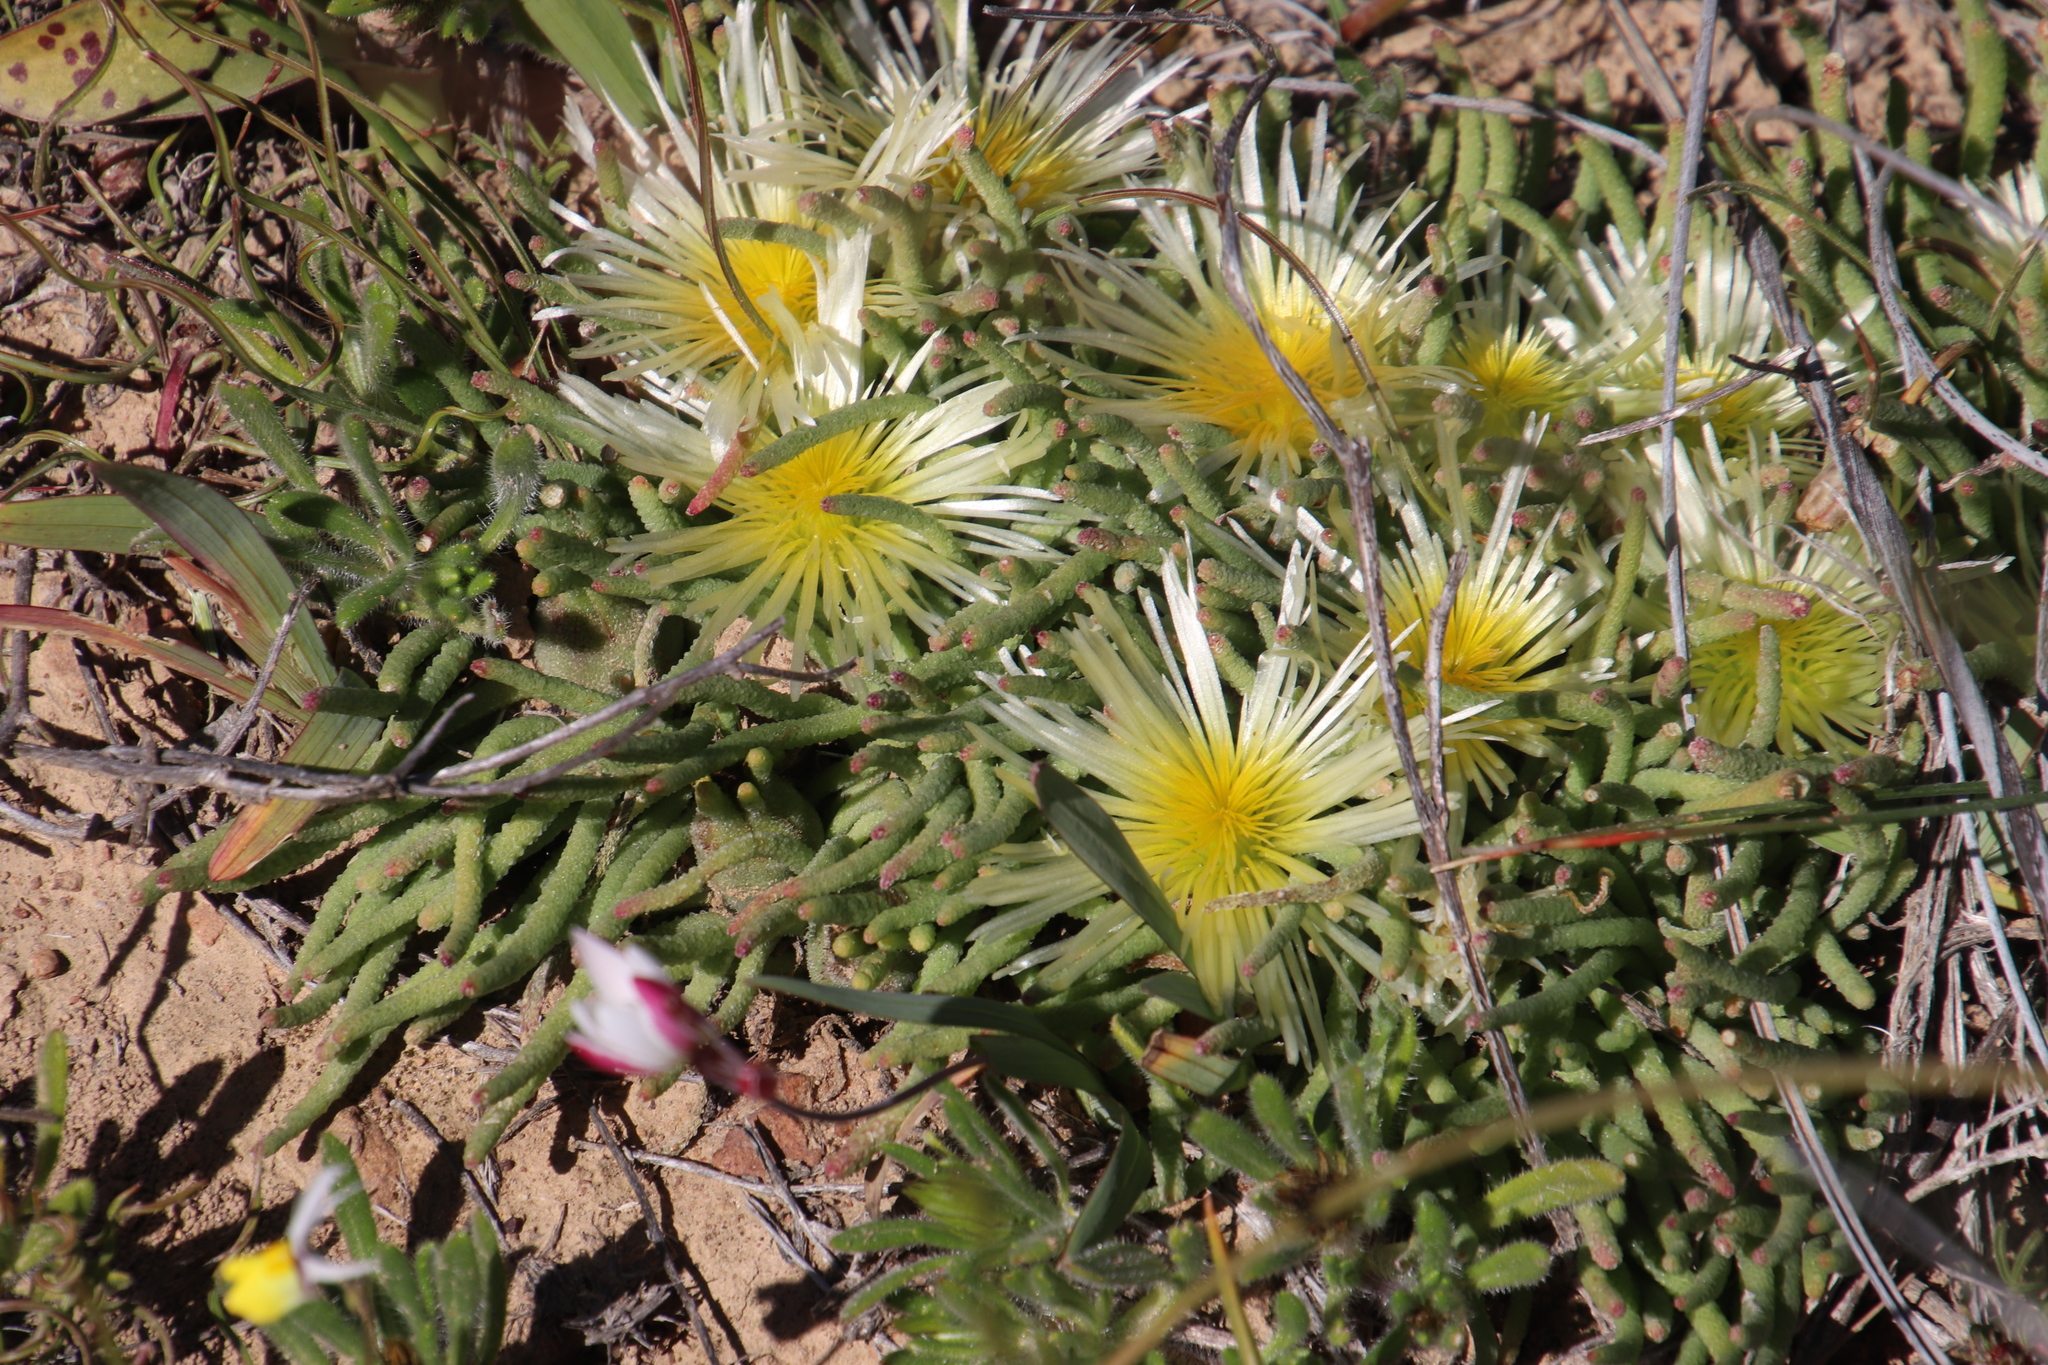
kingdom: Plantae
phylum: Tracheophyta
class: Magnoliopsida
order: Caryophyllales
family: Aizoaceae
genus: Mesembryanthemum
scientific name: Mesembryanthemum tenuiflorum
